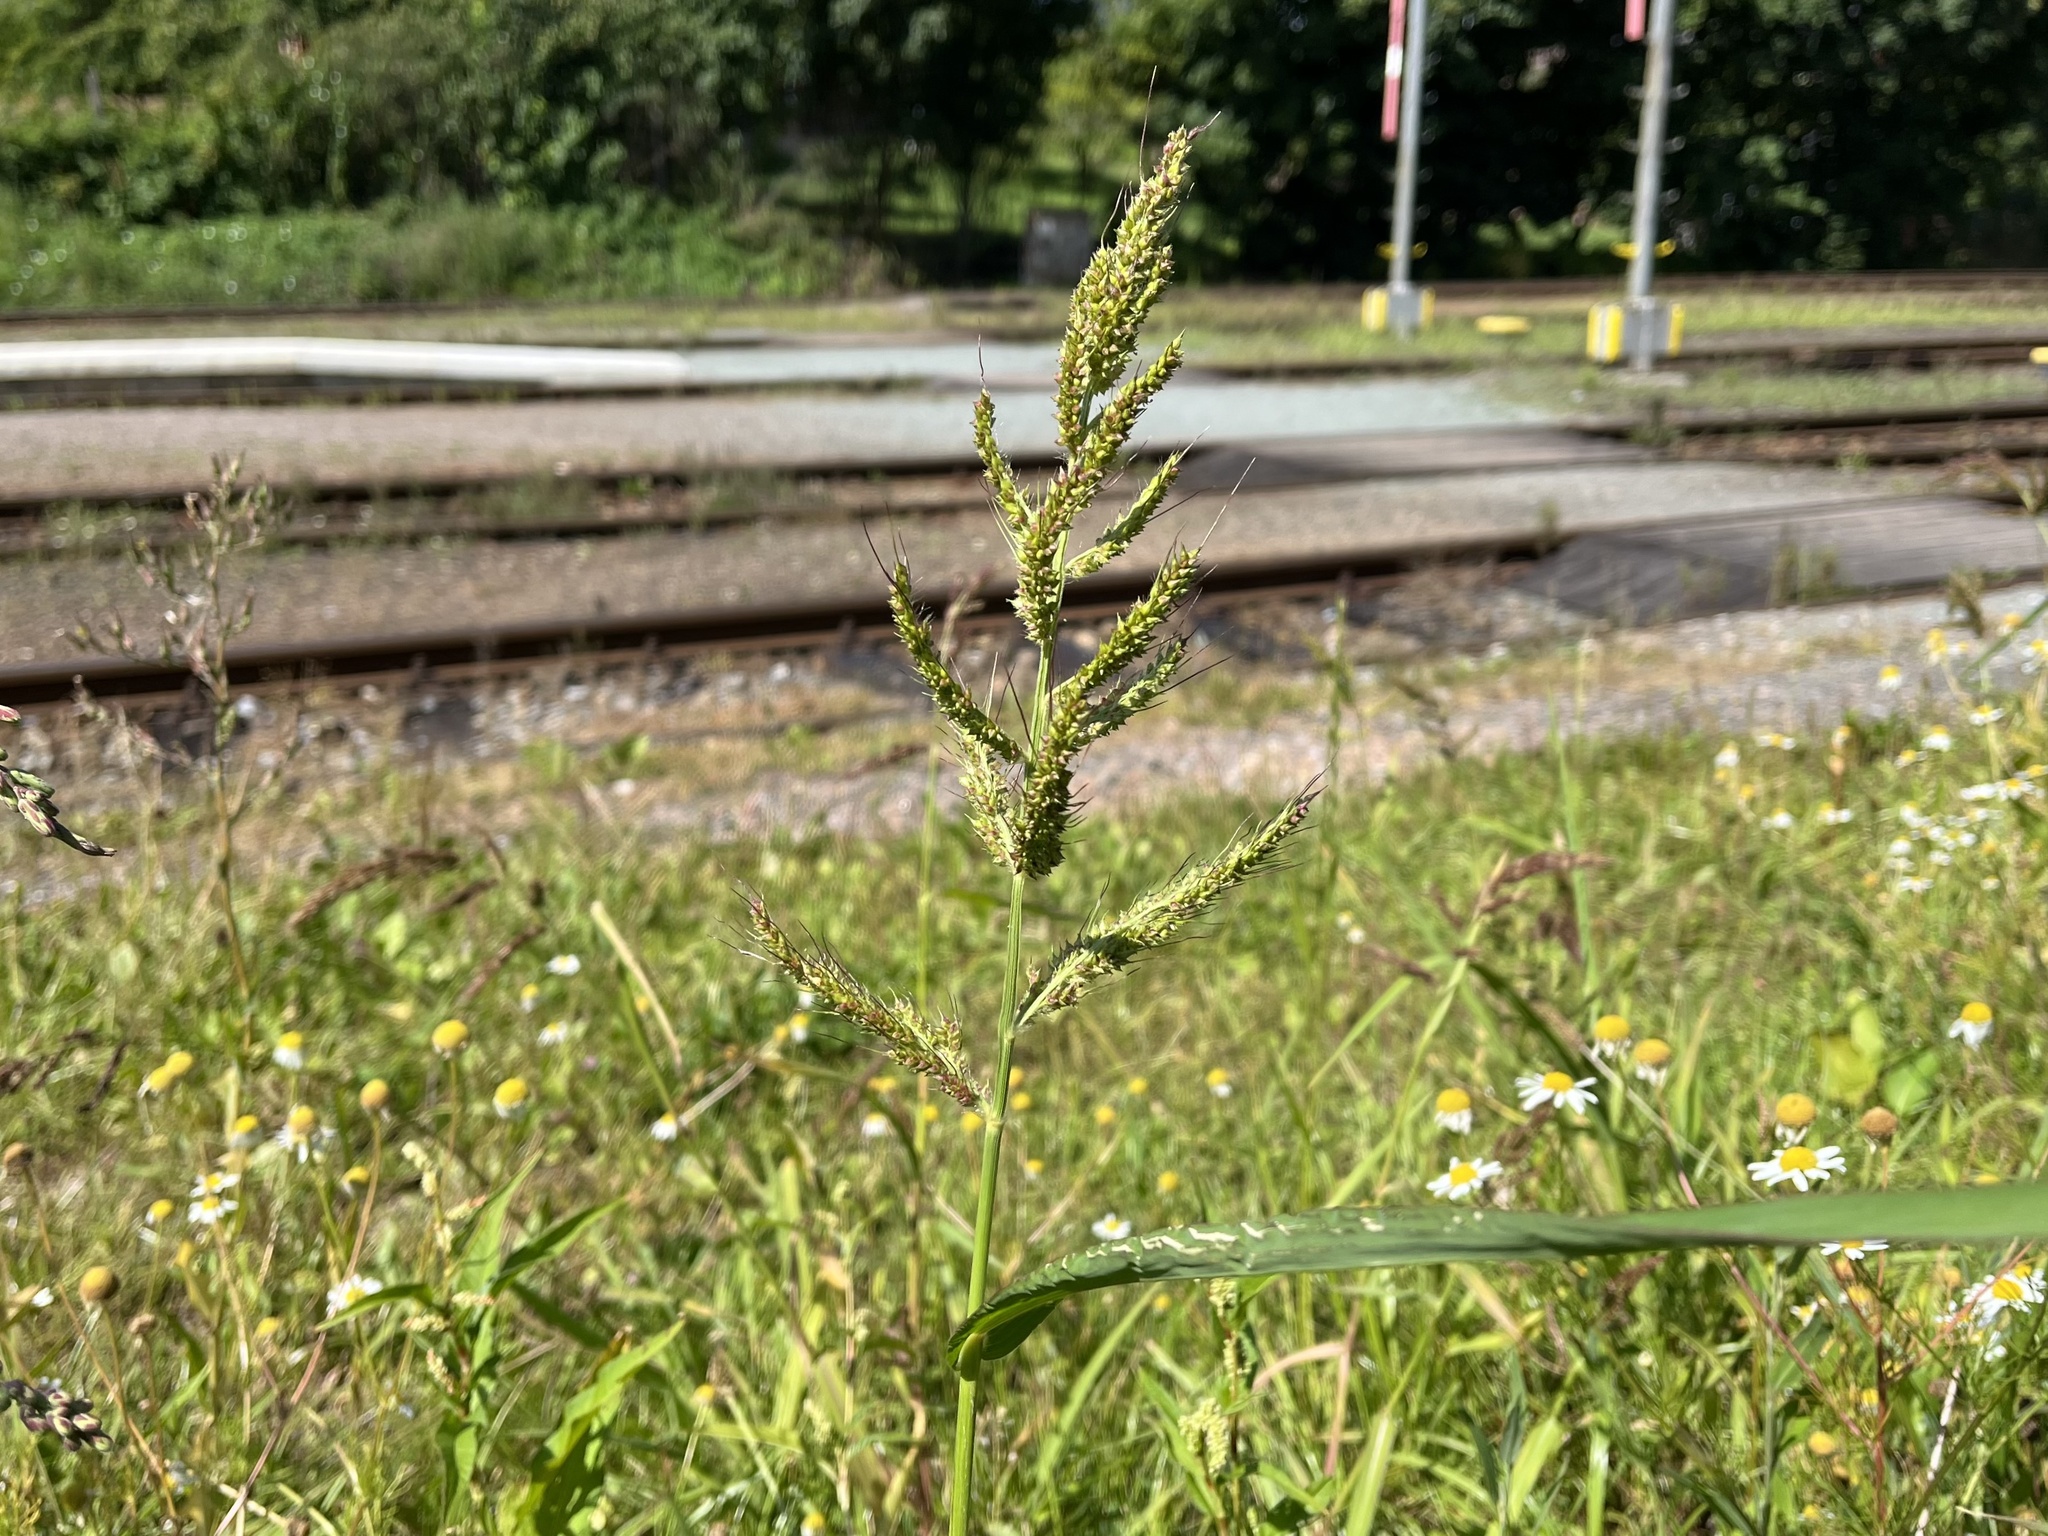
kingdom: Plantae
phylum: Tracheophyta
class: Liliopsida
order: Poales
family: Poaceae
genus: Echinochloa
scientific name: Echinochloa crus-galli
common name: Cockspur
